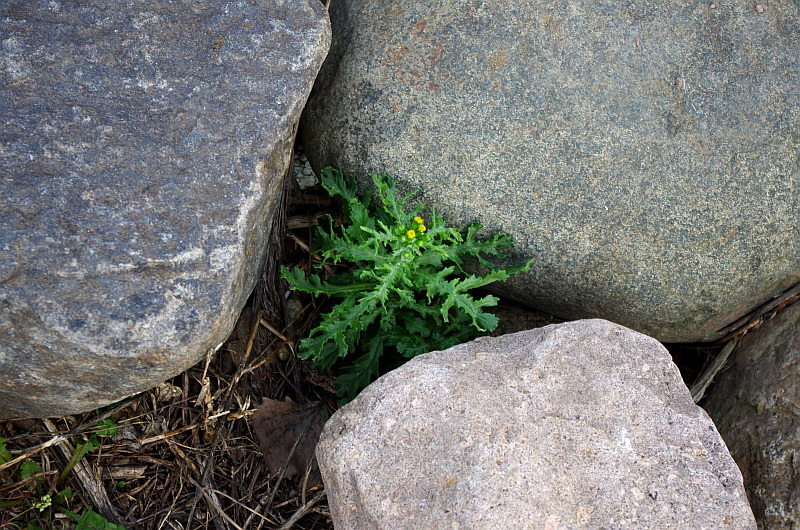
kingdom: Plantae
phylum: Tracheophyta
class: Magnoliopsida
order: Asterales
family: Asteraceae
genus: Senecio
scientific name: Senecio vulgaris
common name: Old-man-in-the-spring
